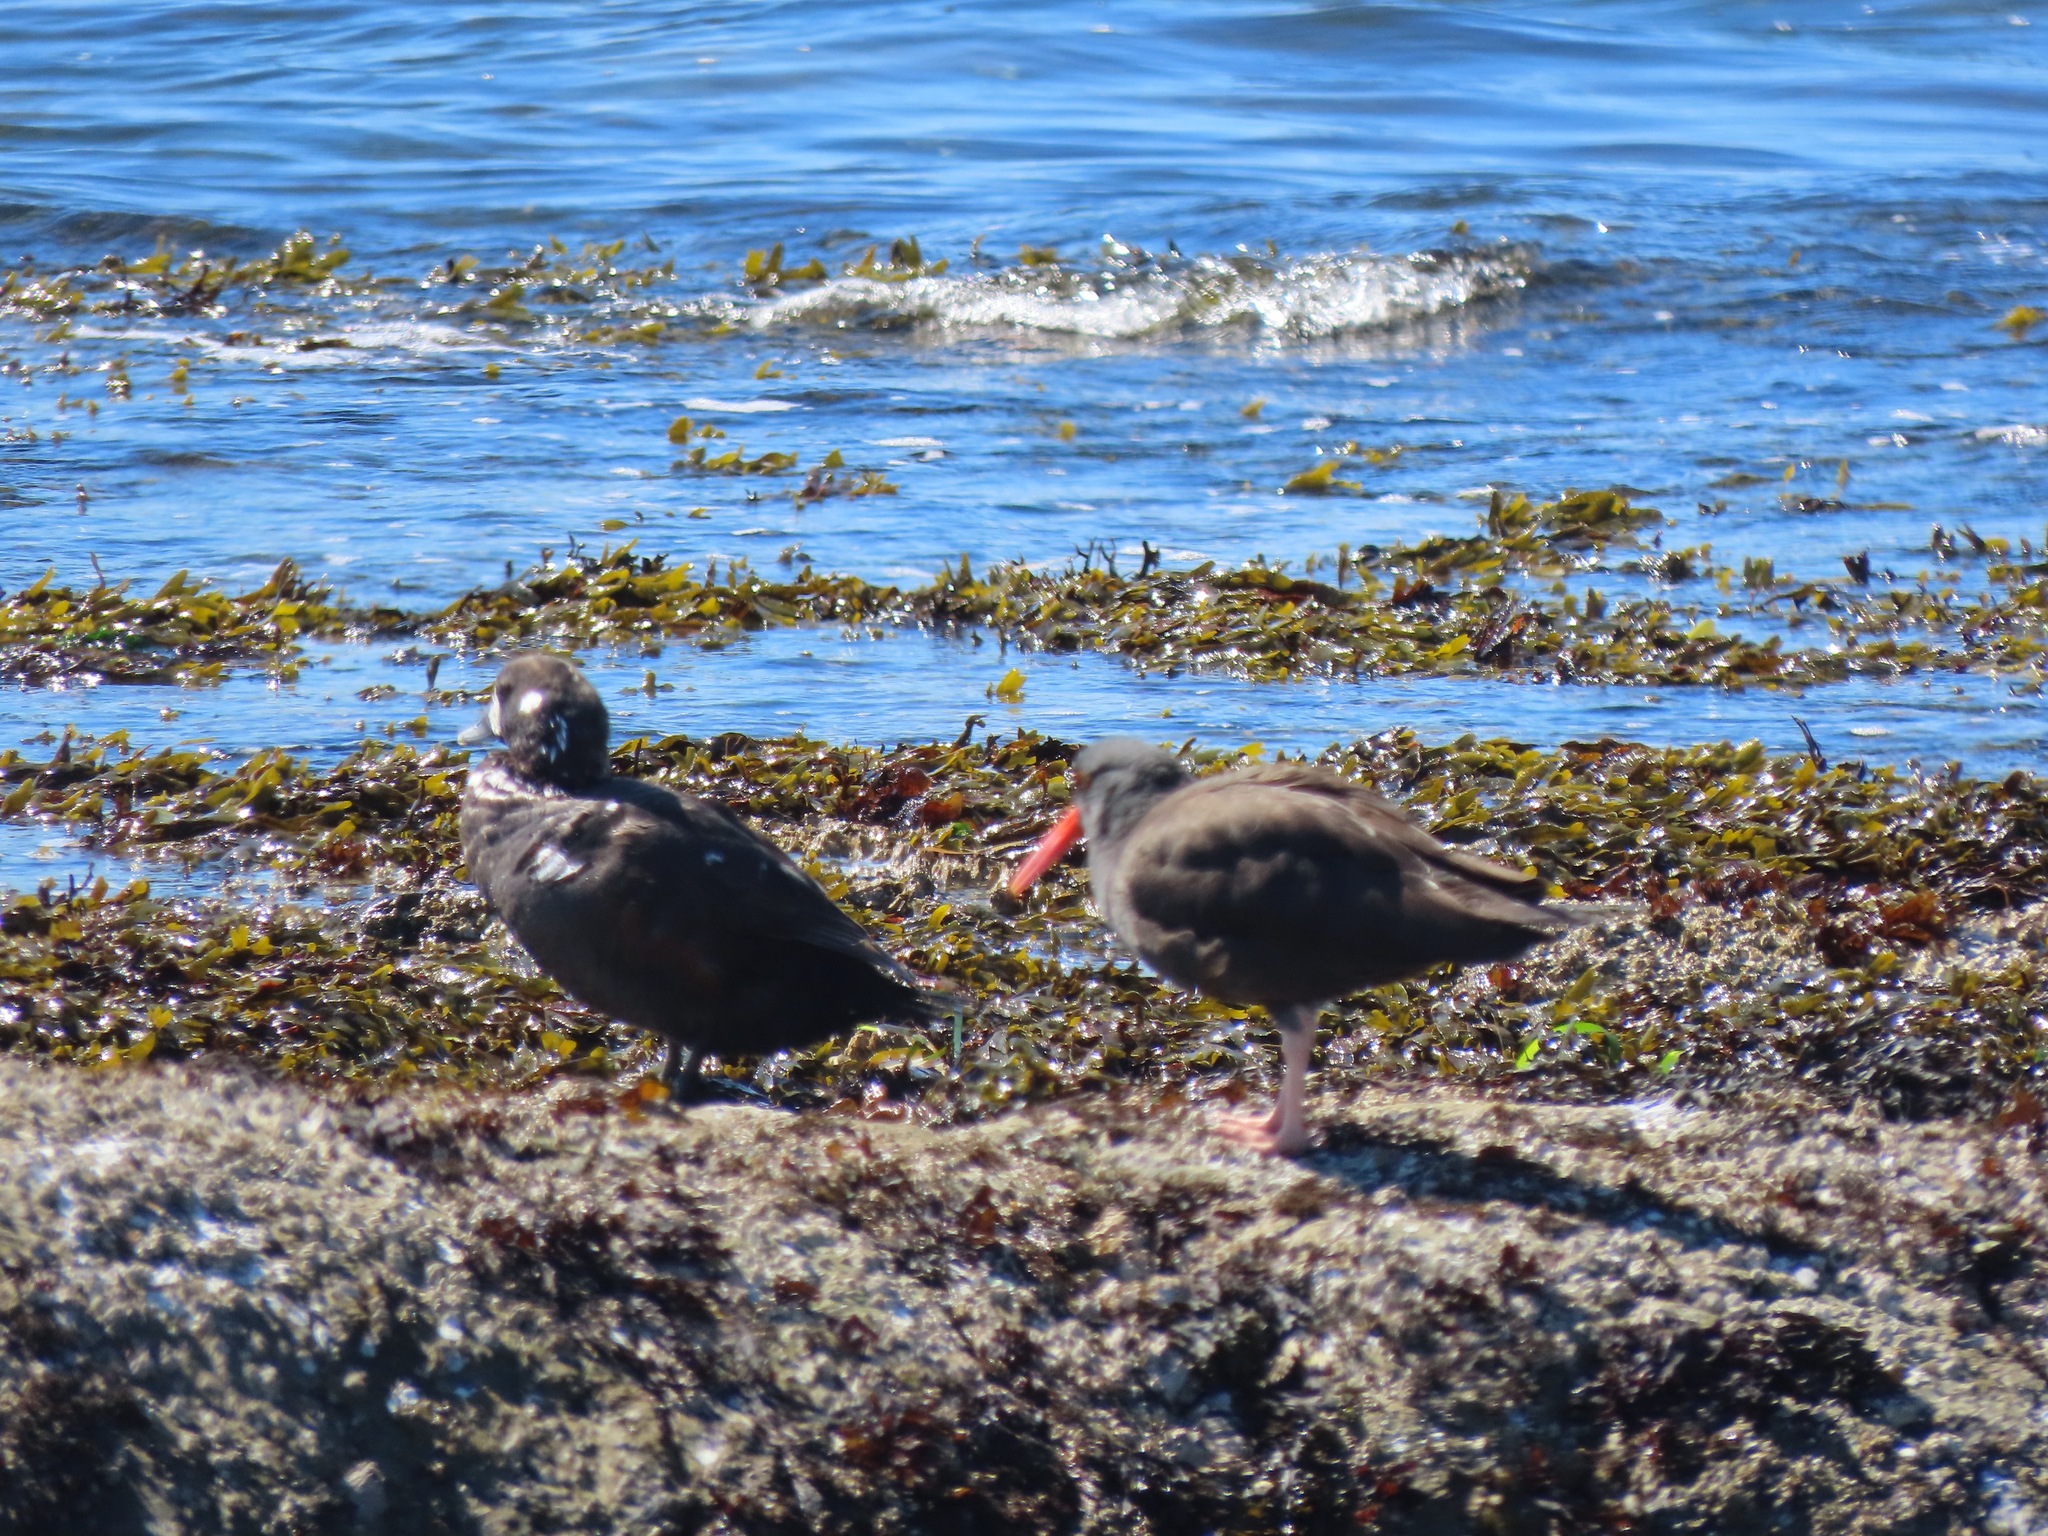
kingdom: Animalia
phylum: Chordata
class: Aves
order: Anseriformes
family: Anatidae
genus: Histrionicus
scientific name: Histrionicus histrionicus
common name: Harlequin duck
